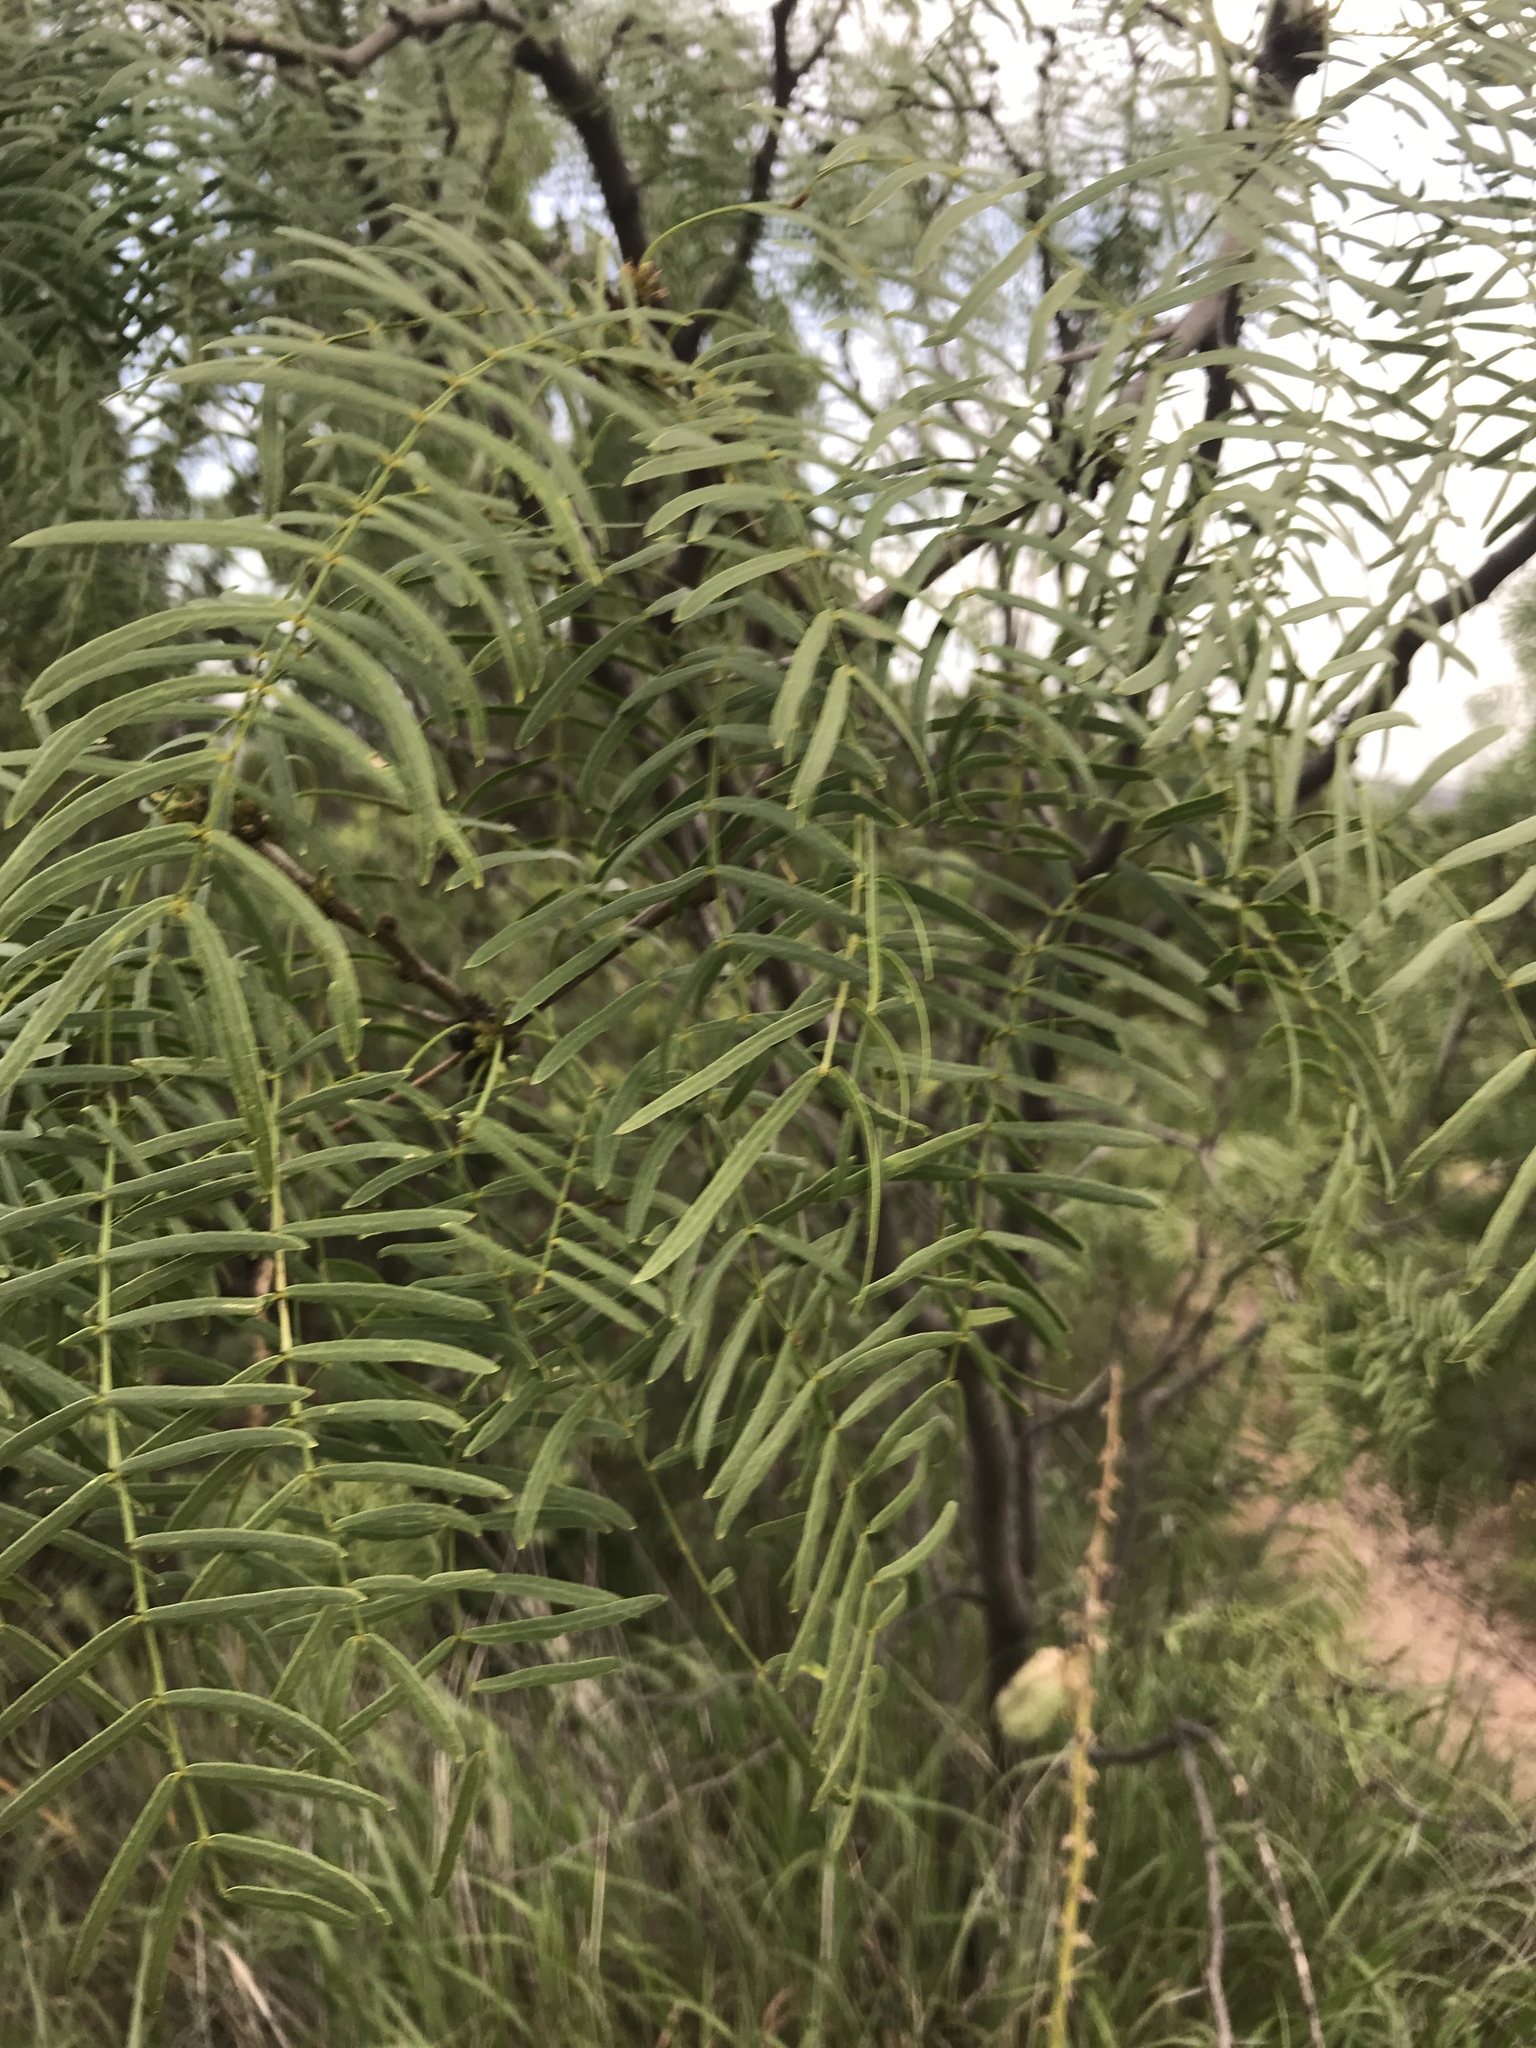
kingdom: Plantae
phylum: Tracheophyta
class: Magnoliopsida
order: Fabales
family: Fabaceae
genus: Prosopis
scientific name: Prosopis glandulosa
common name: Honey mesquite
